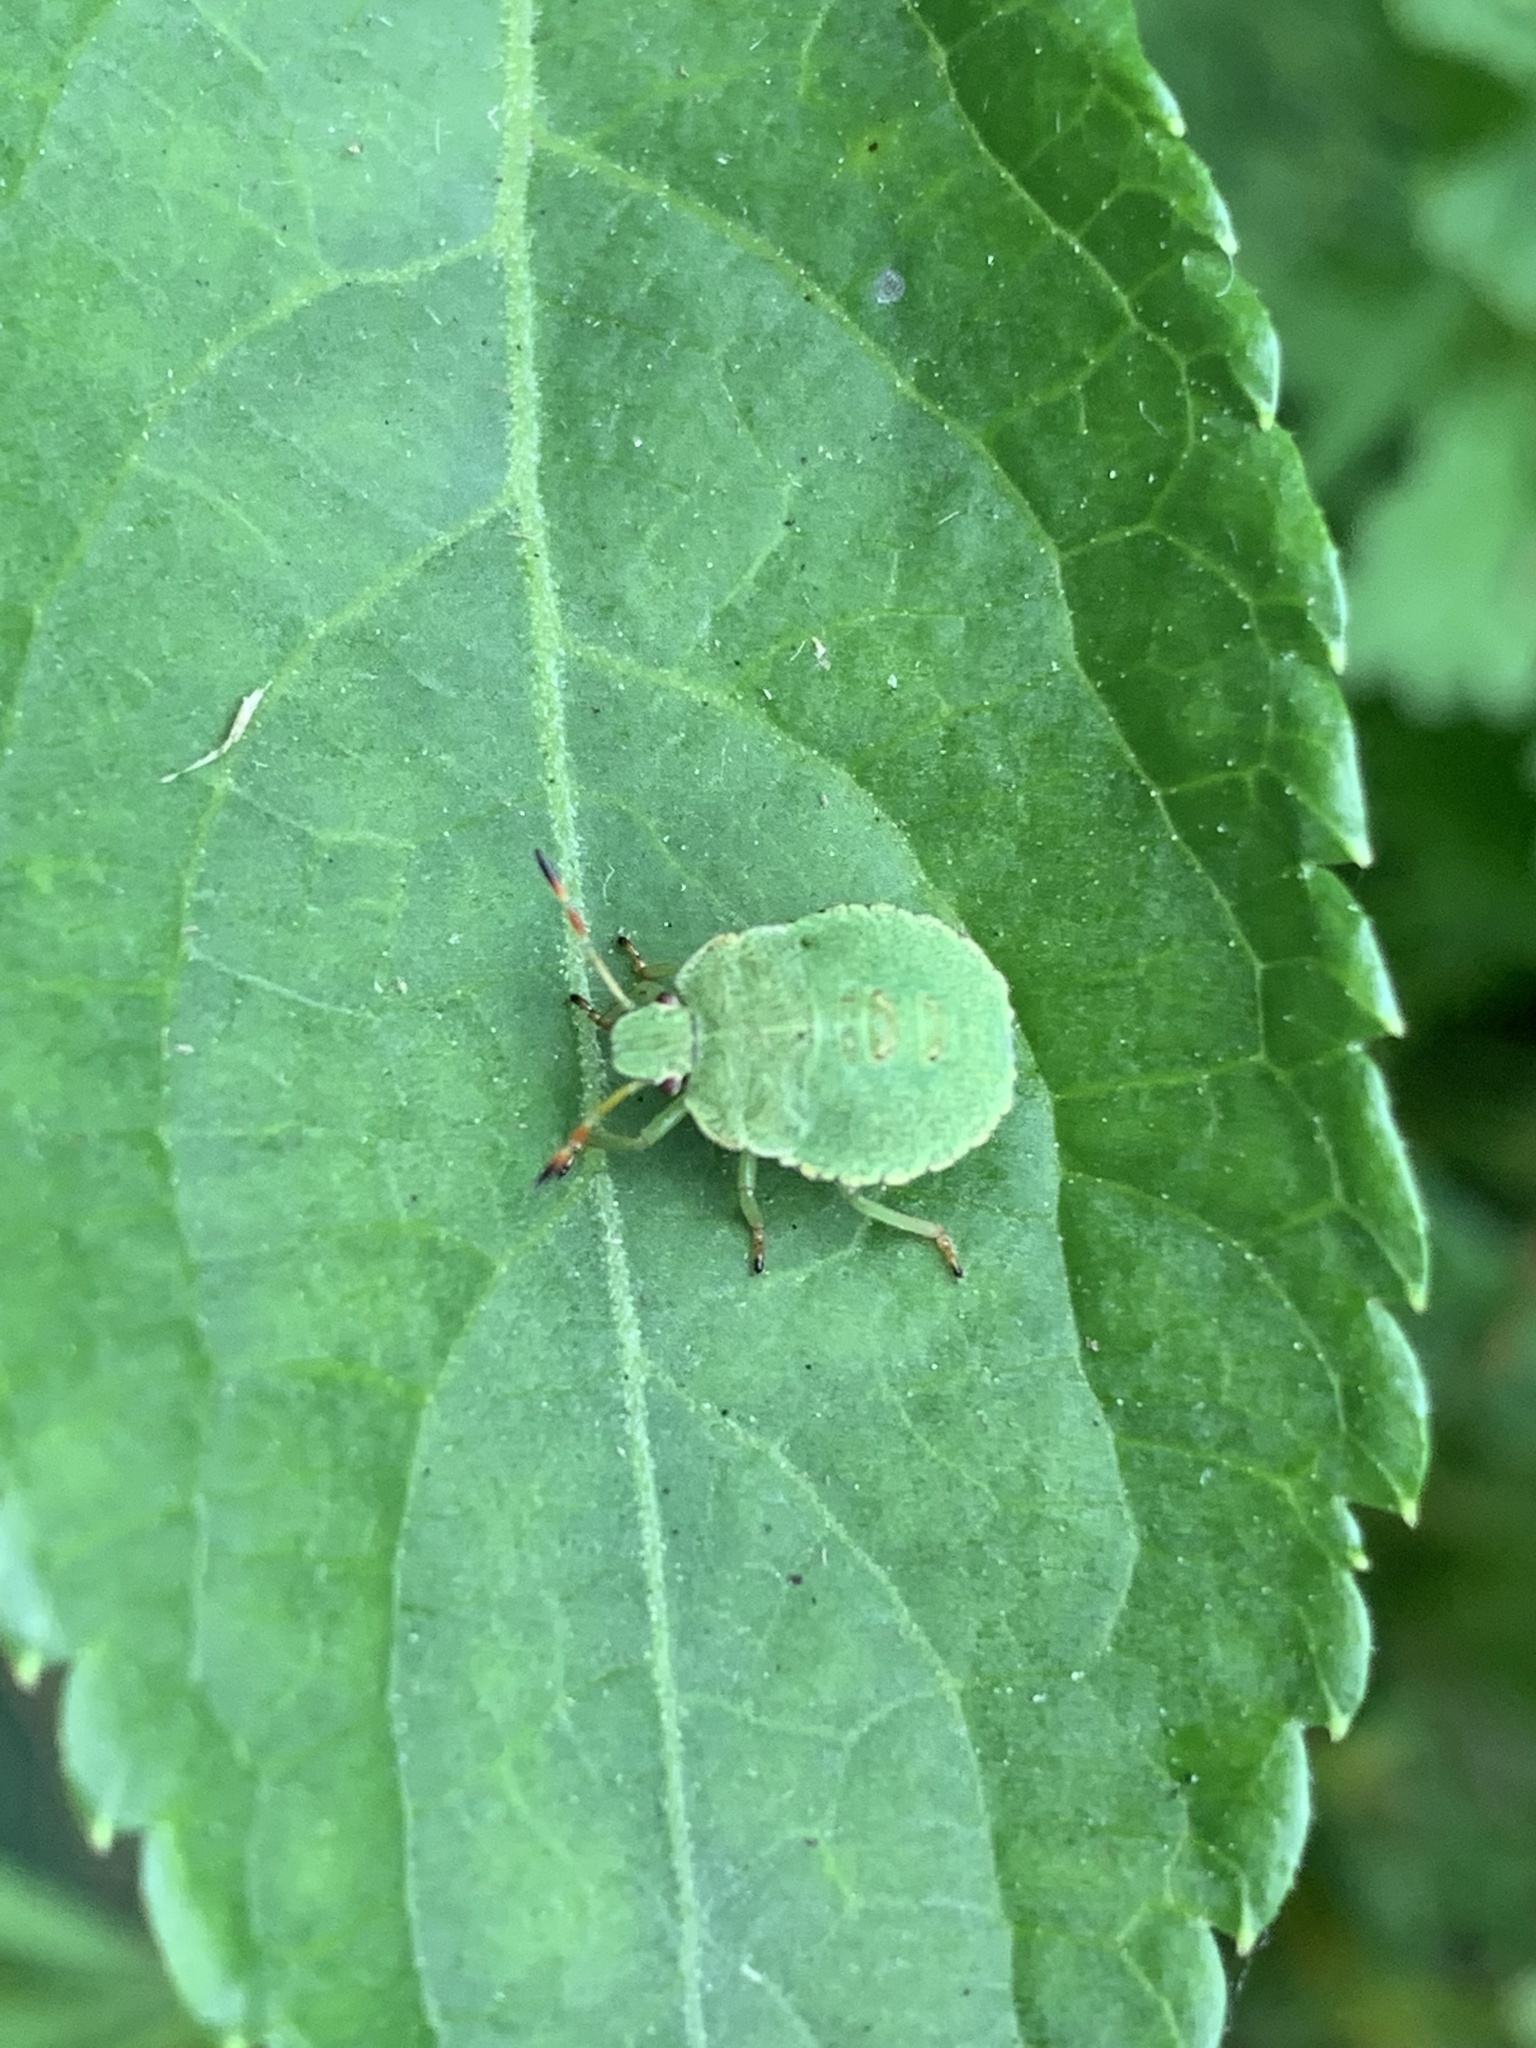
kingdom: Animalia
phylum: Arthropoda
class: Insecta
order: Hemiptera
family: Pentatomidae
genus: Palomena
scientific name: Palomena prasina
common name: Green shieldbug
